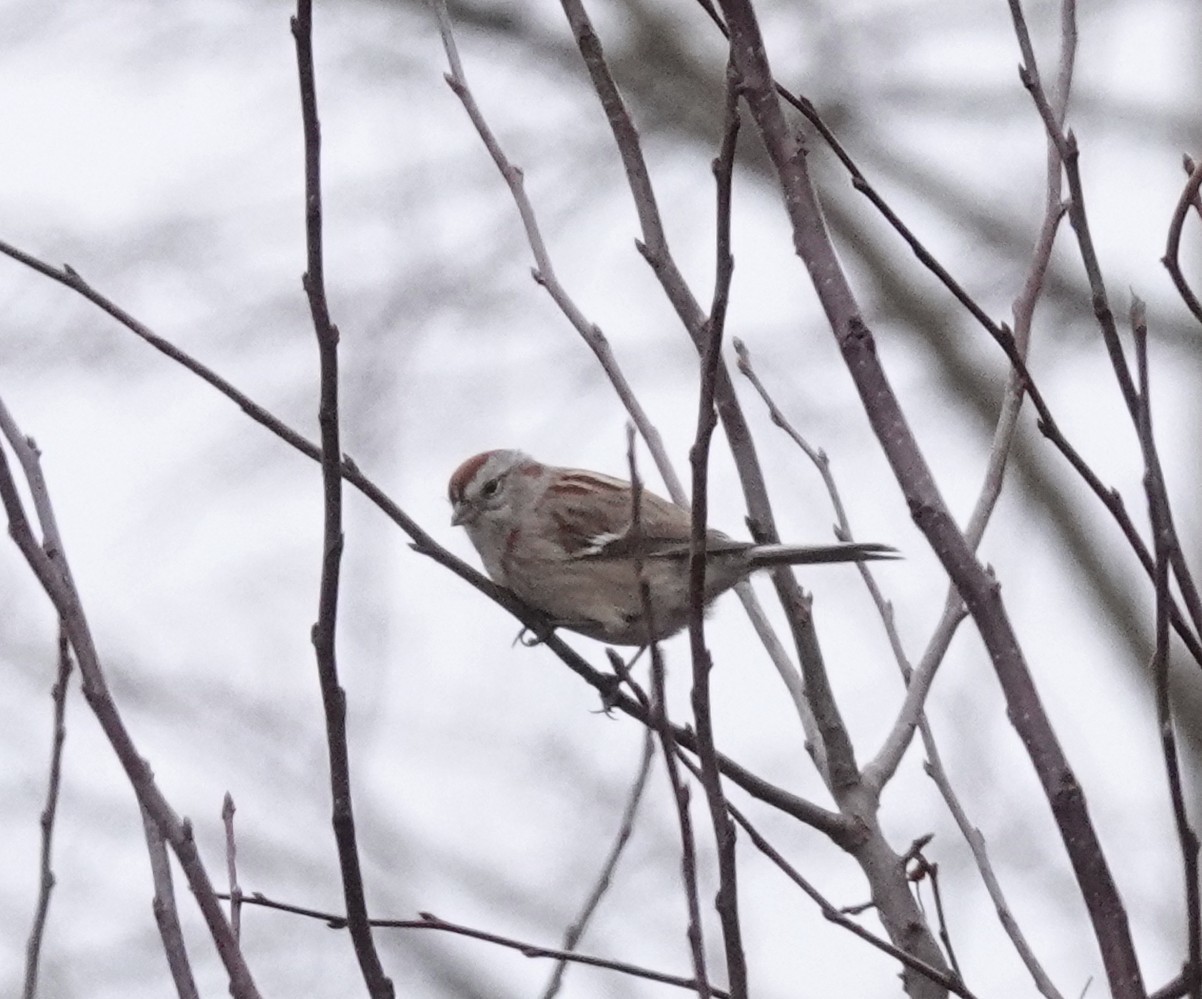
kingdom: Animalia
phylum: Chordata
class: Aves
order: Passeriformes
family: Passerellidae
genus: Spizelloides
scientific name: Spizelloides arborea
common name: American tree sparrow
